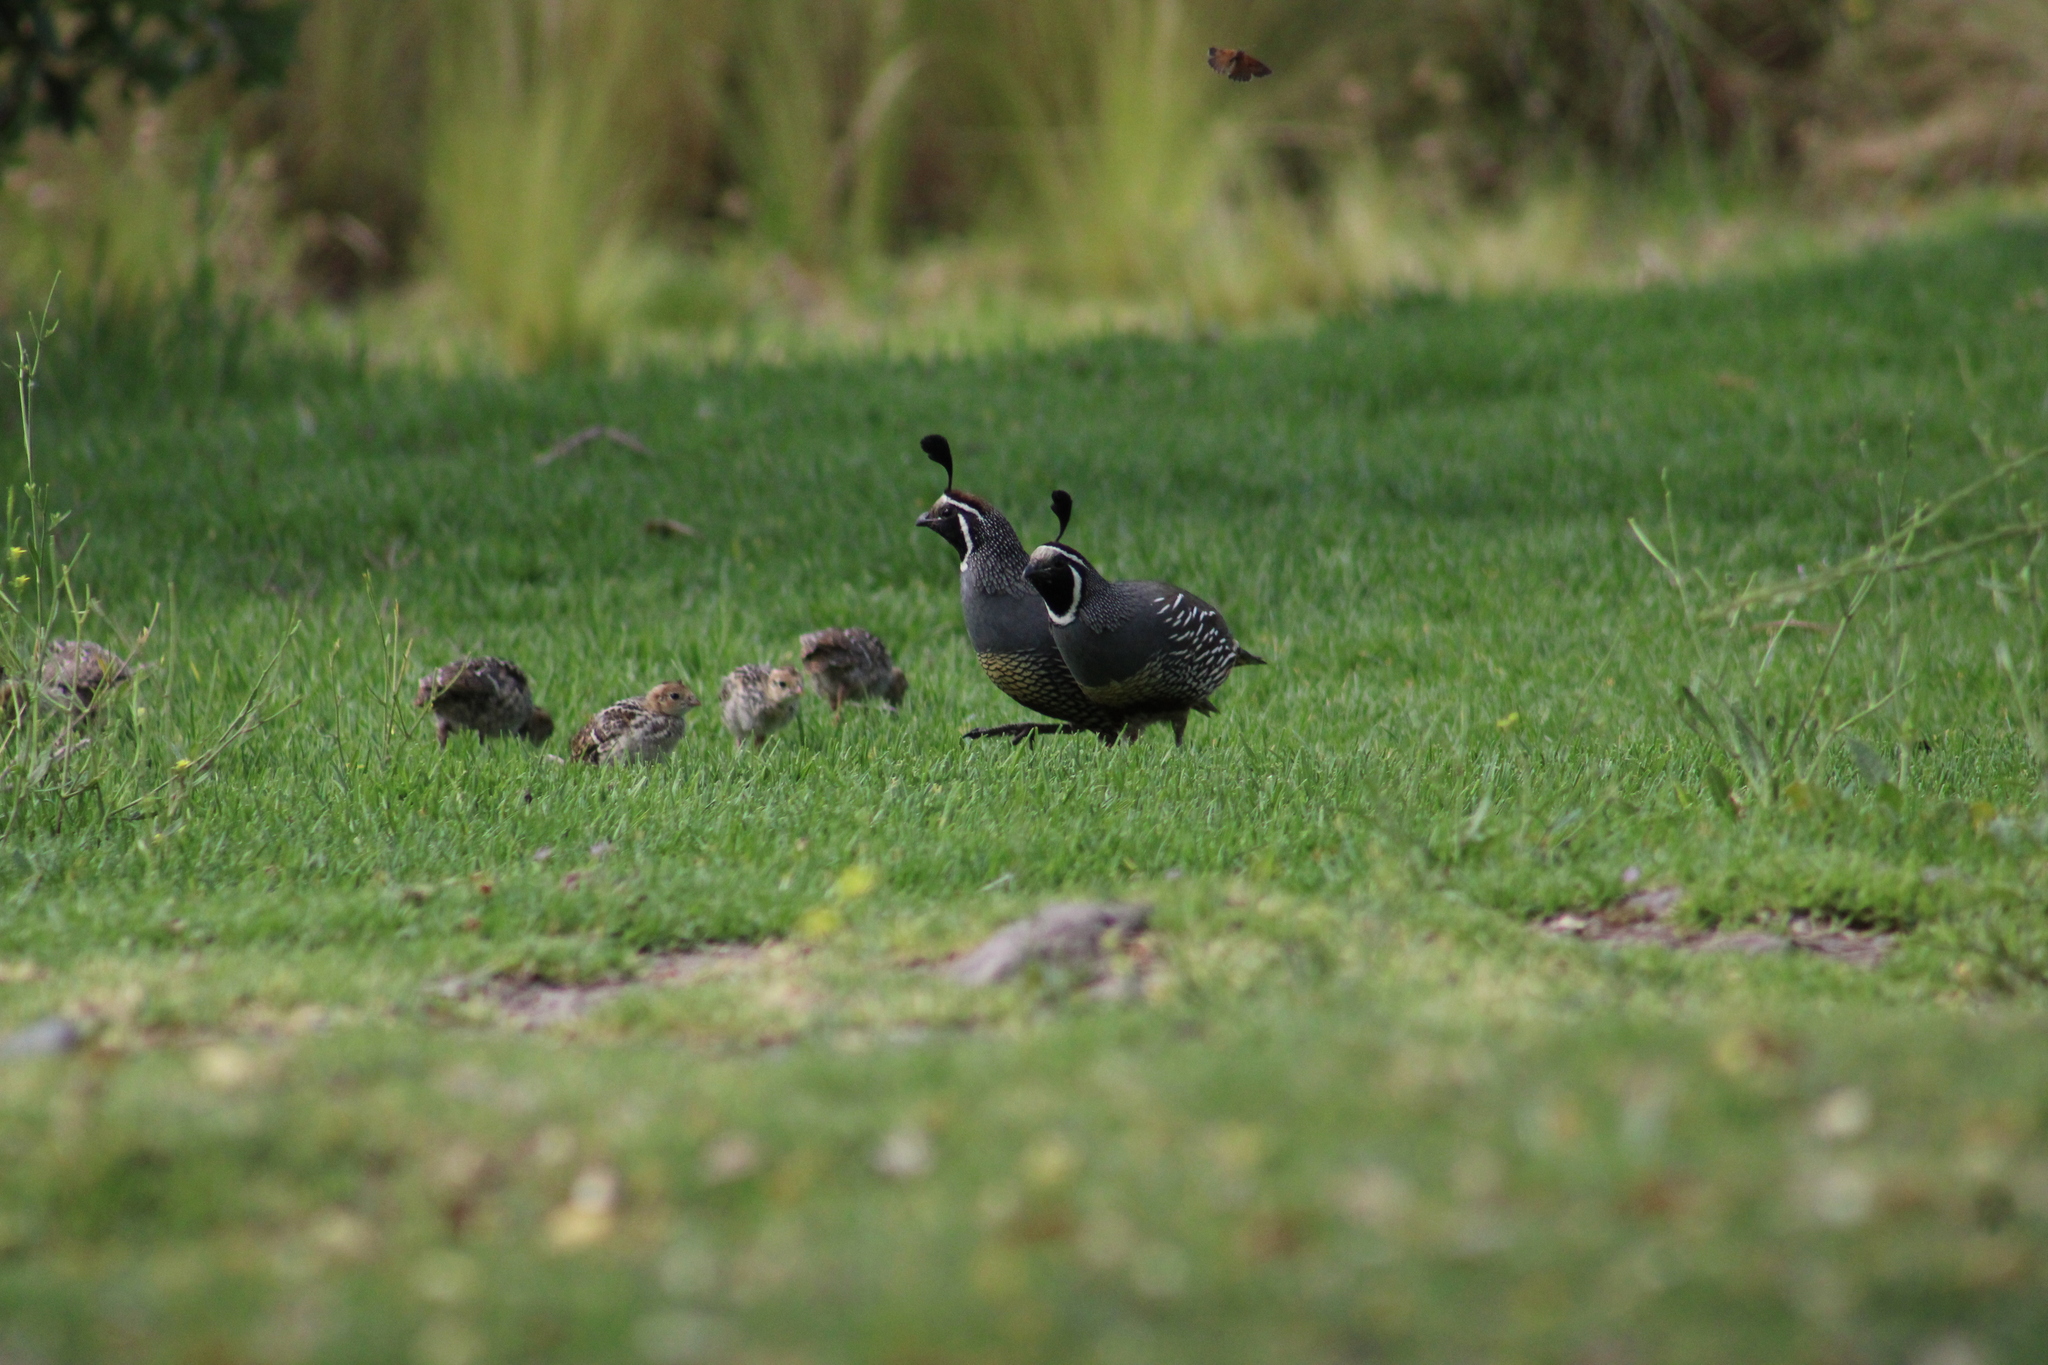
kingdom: Animalia
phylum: Chordata
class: Aves
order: Galliformes
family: Odontophoridae
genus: Callipepla
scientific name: Callipepla californica
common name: California quail
